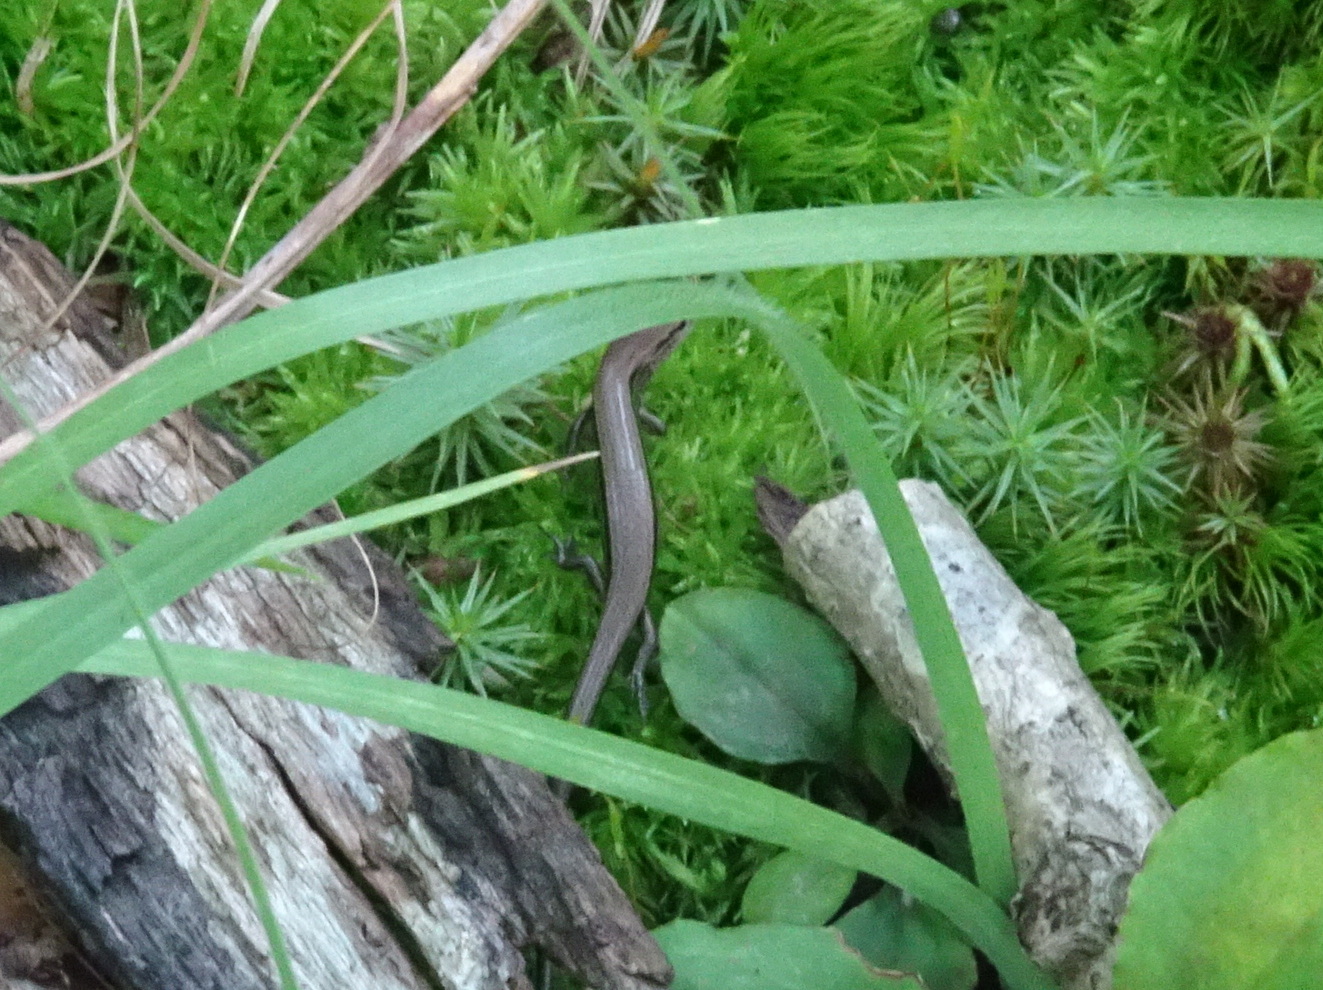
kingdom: Animalia
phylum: Chordata
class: Squamata
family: Scincidae
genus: Scincella
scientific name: Scincella lateralis
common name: Ground skink
